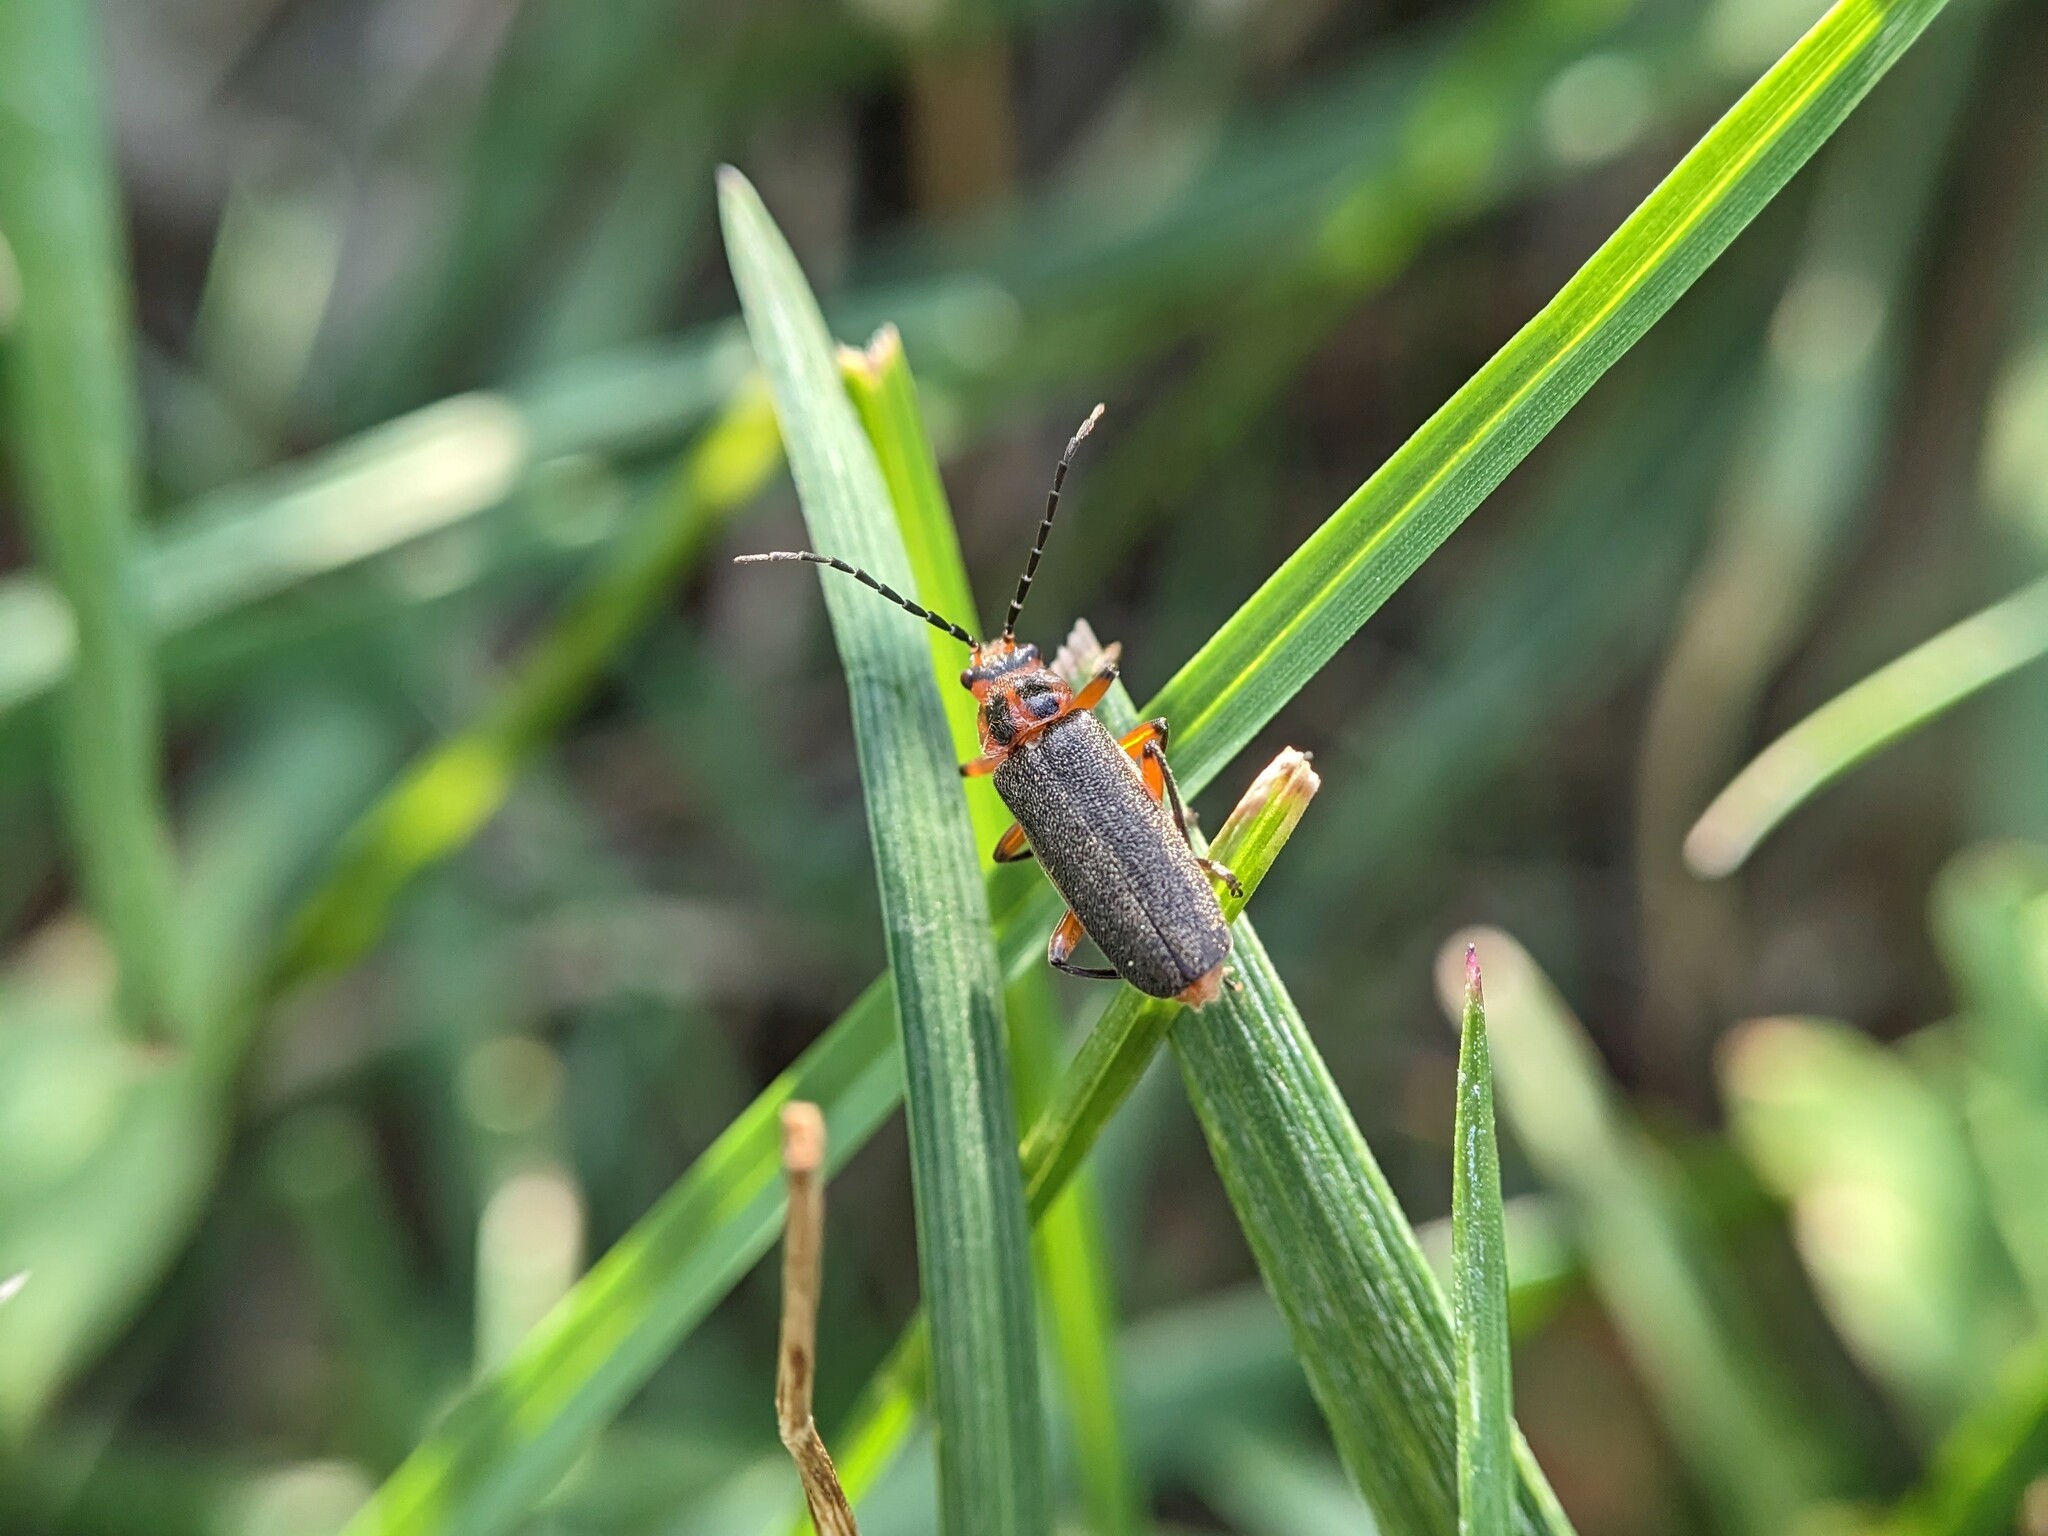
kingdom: Animalia
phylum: Arthropoda
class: Insecta
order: Coleoptera
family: Cantharidae
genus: Atalantycha
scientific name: Atalantycha bilineata
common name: Two-lined leatherwing
